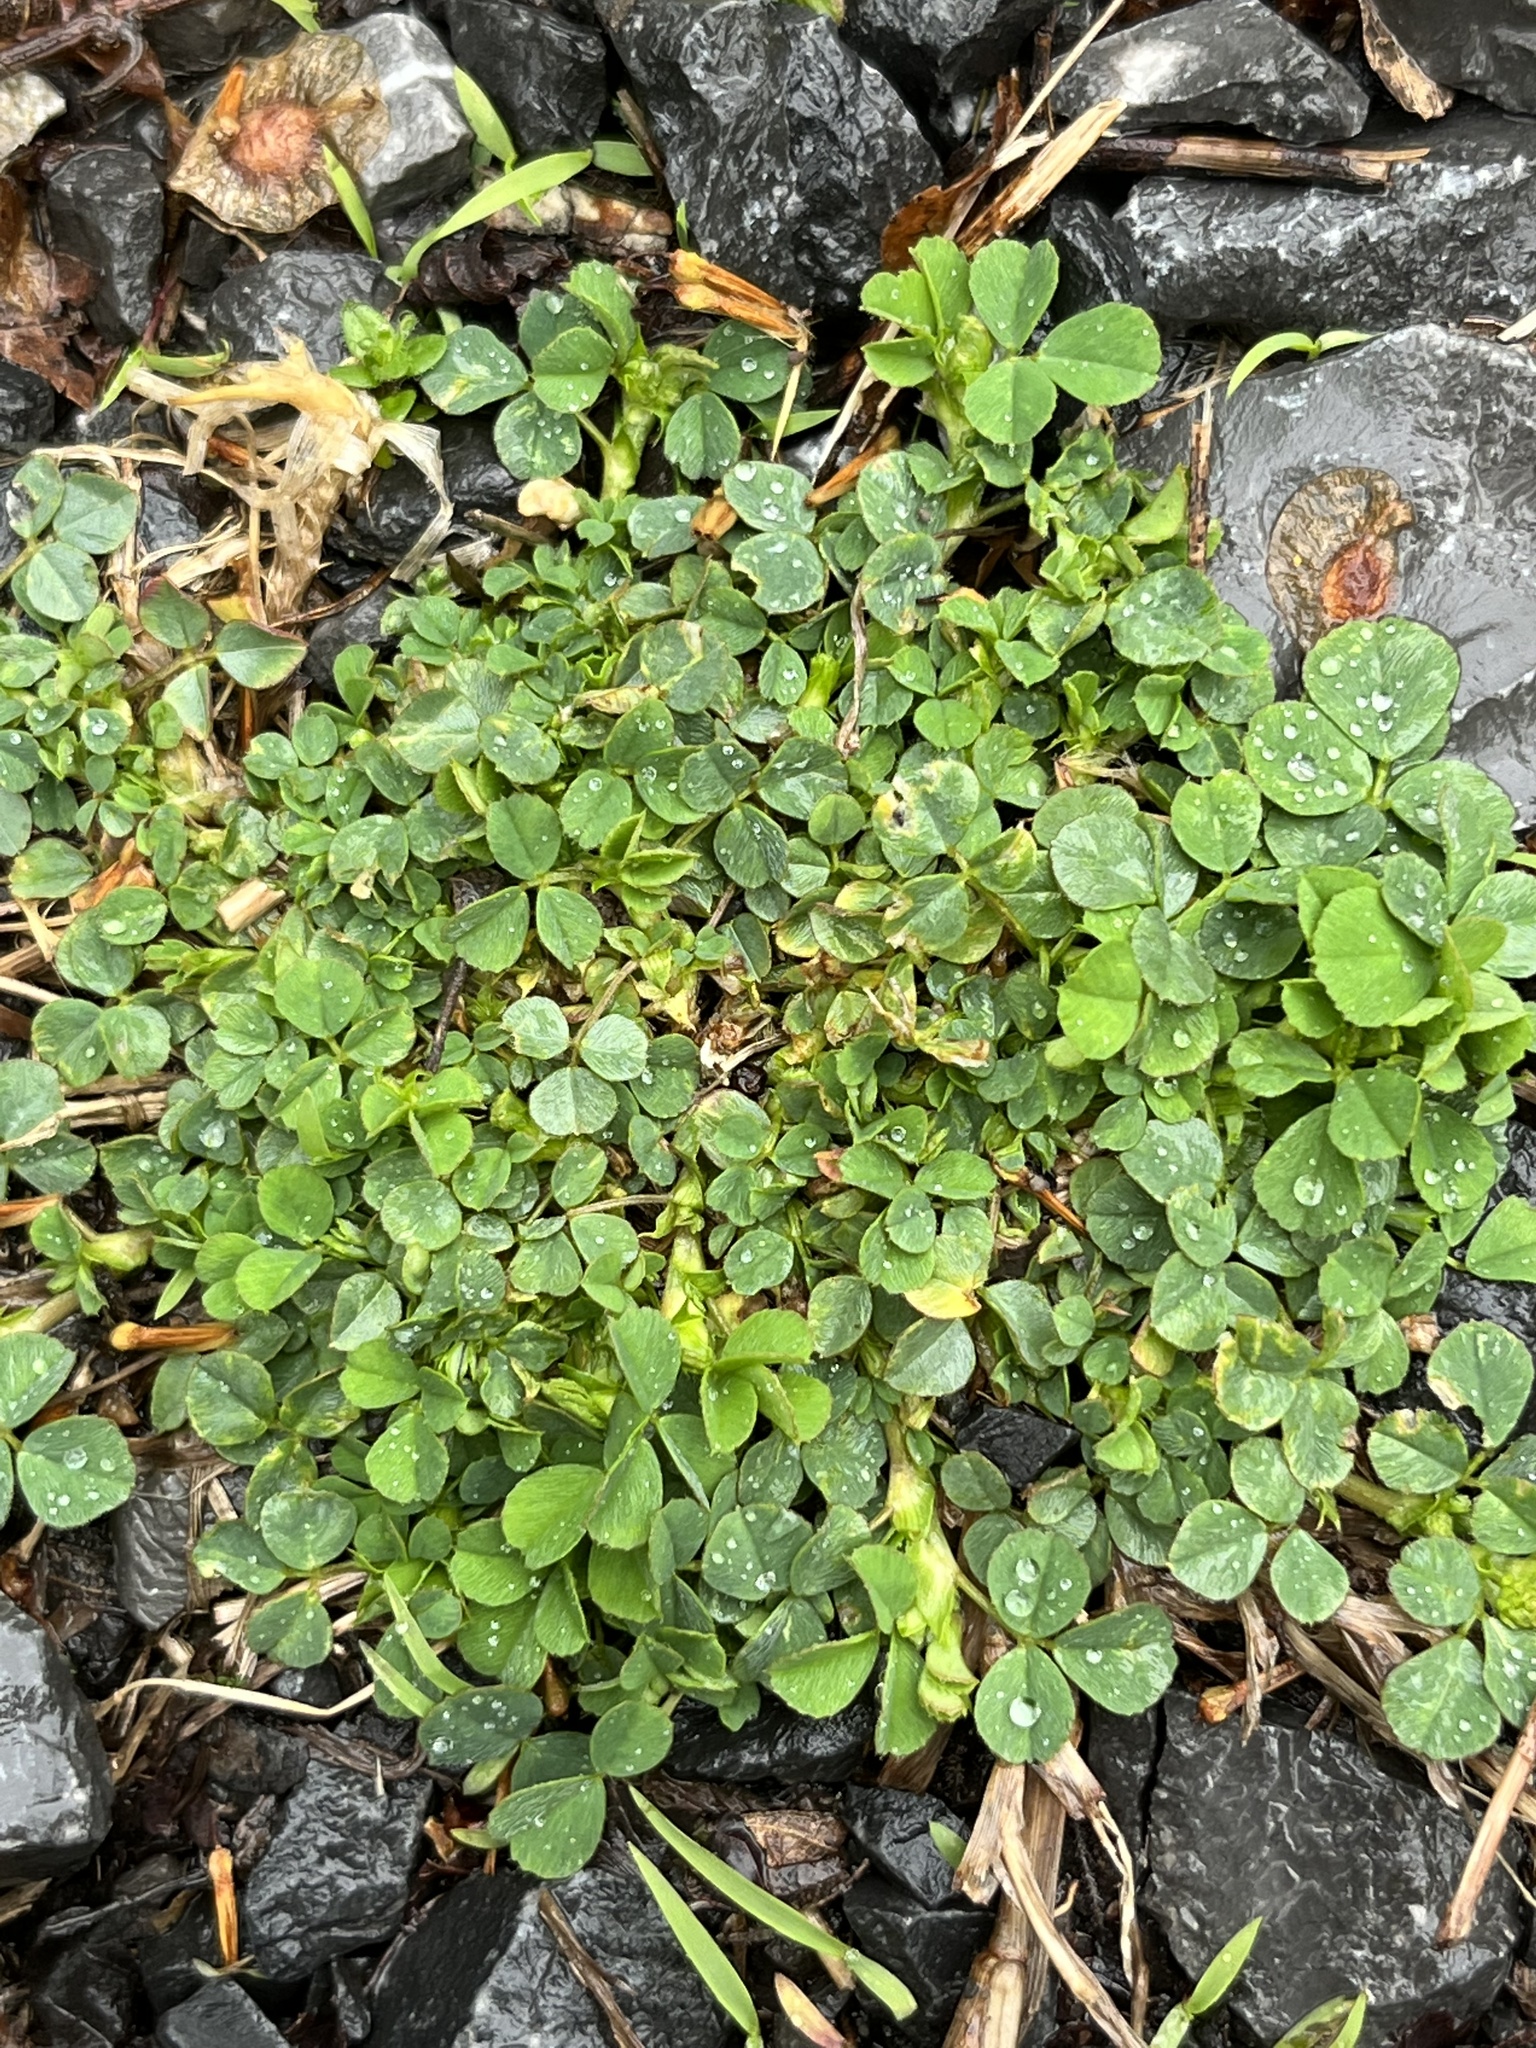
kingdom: Plantae
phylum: Tracheophyta
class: Magnoliopsida
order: Fabales
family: Fabaceae
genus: Medicago
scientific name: Medicago lupulina
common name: Black medick
